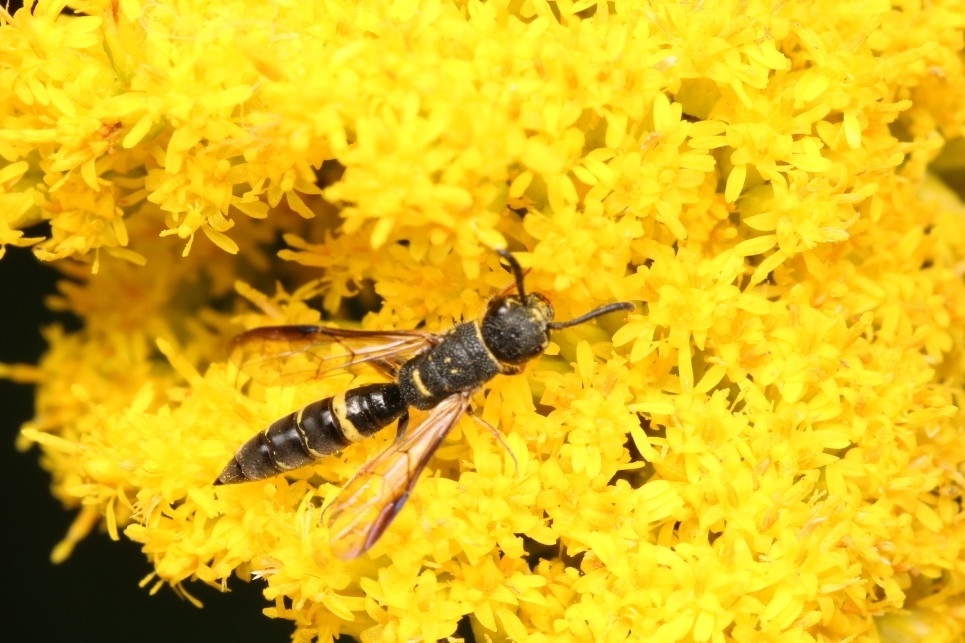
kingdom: Animalia
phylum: Arthropoda
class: Insecta
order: Hymenoptera
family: Sapygidae
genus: Sapyga
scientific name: Sapyga louisi
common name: Louis's club-horned cuckoo wasp
